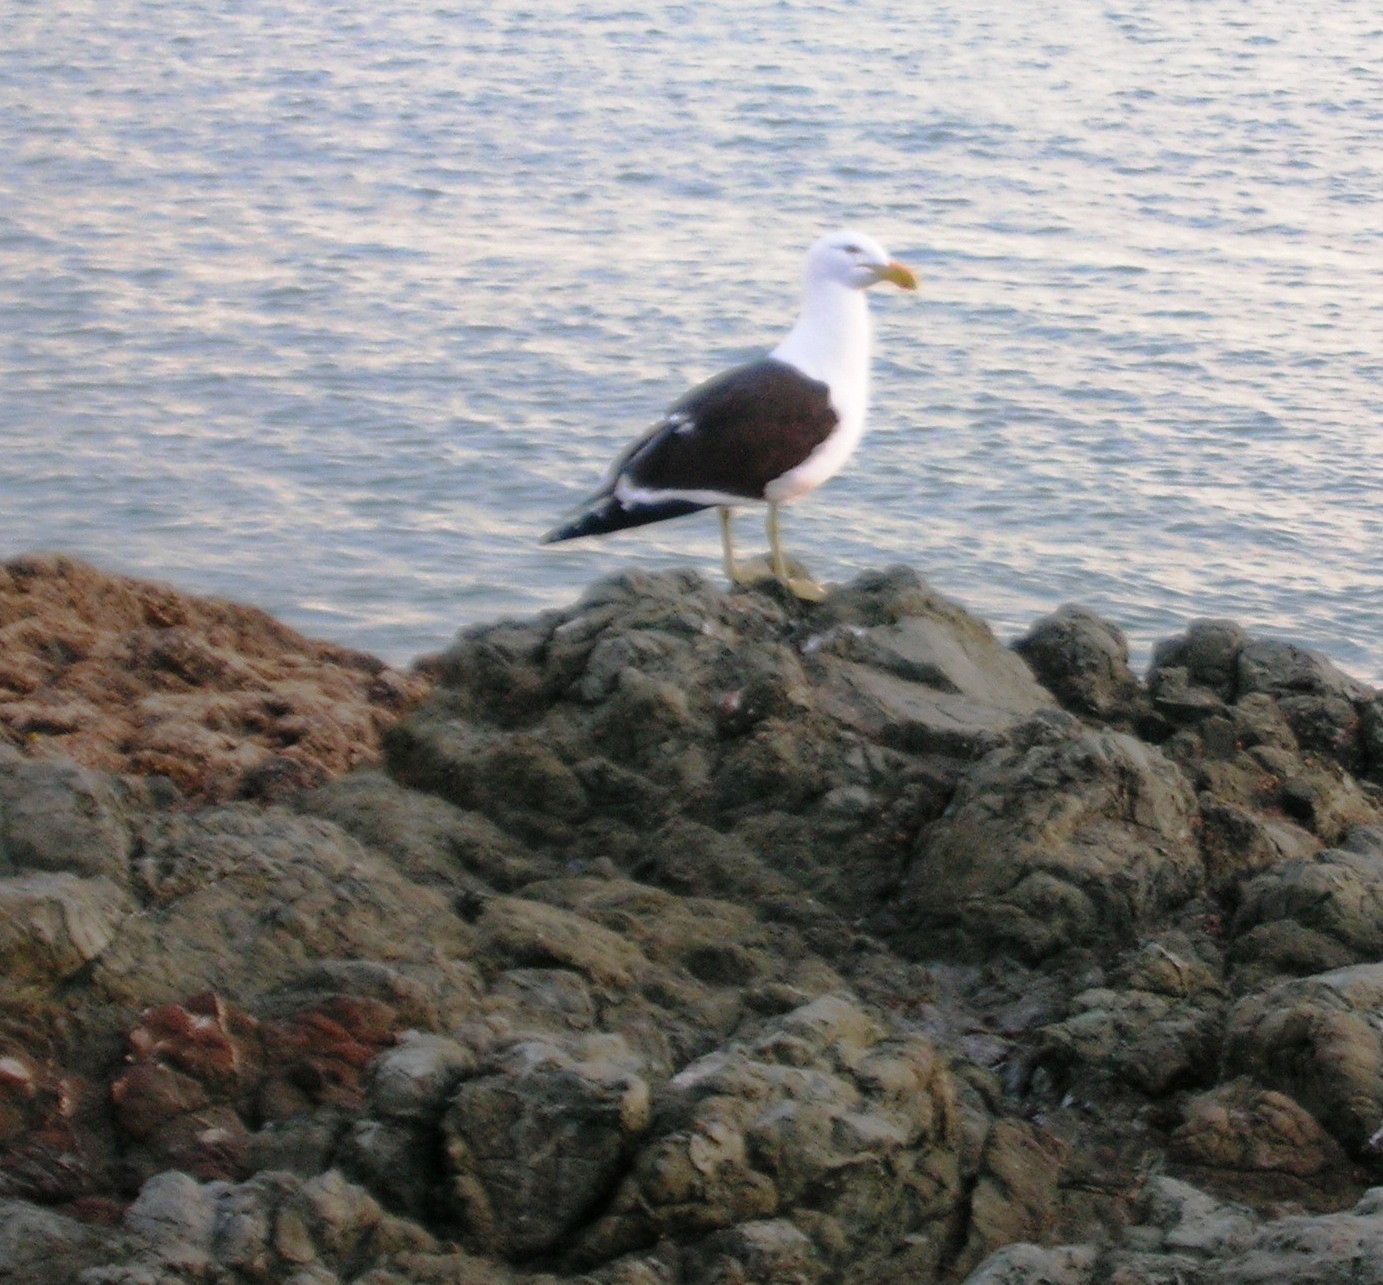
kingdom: Animalia
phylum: Chordata
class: Aves
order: Charadriiformes
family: Laridae
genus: Larus
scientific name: Larus dominicanus
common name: Kelp gull
